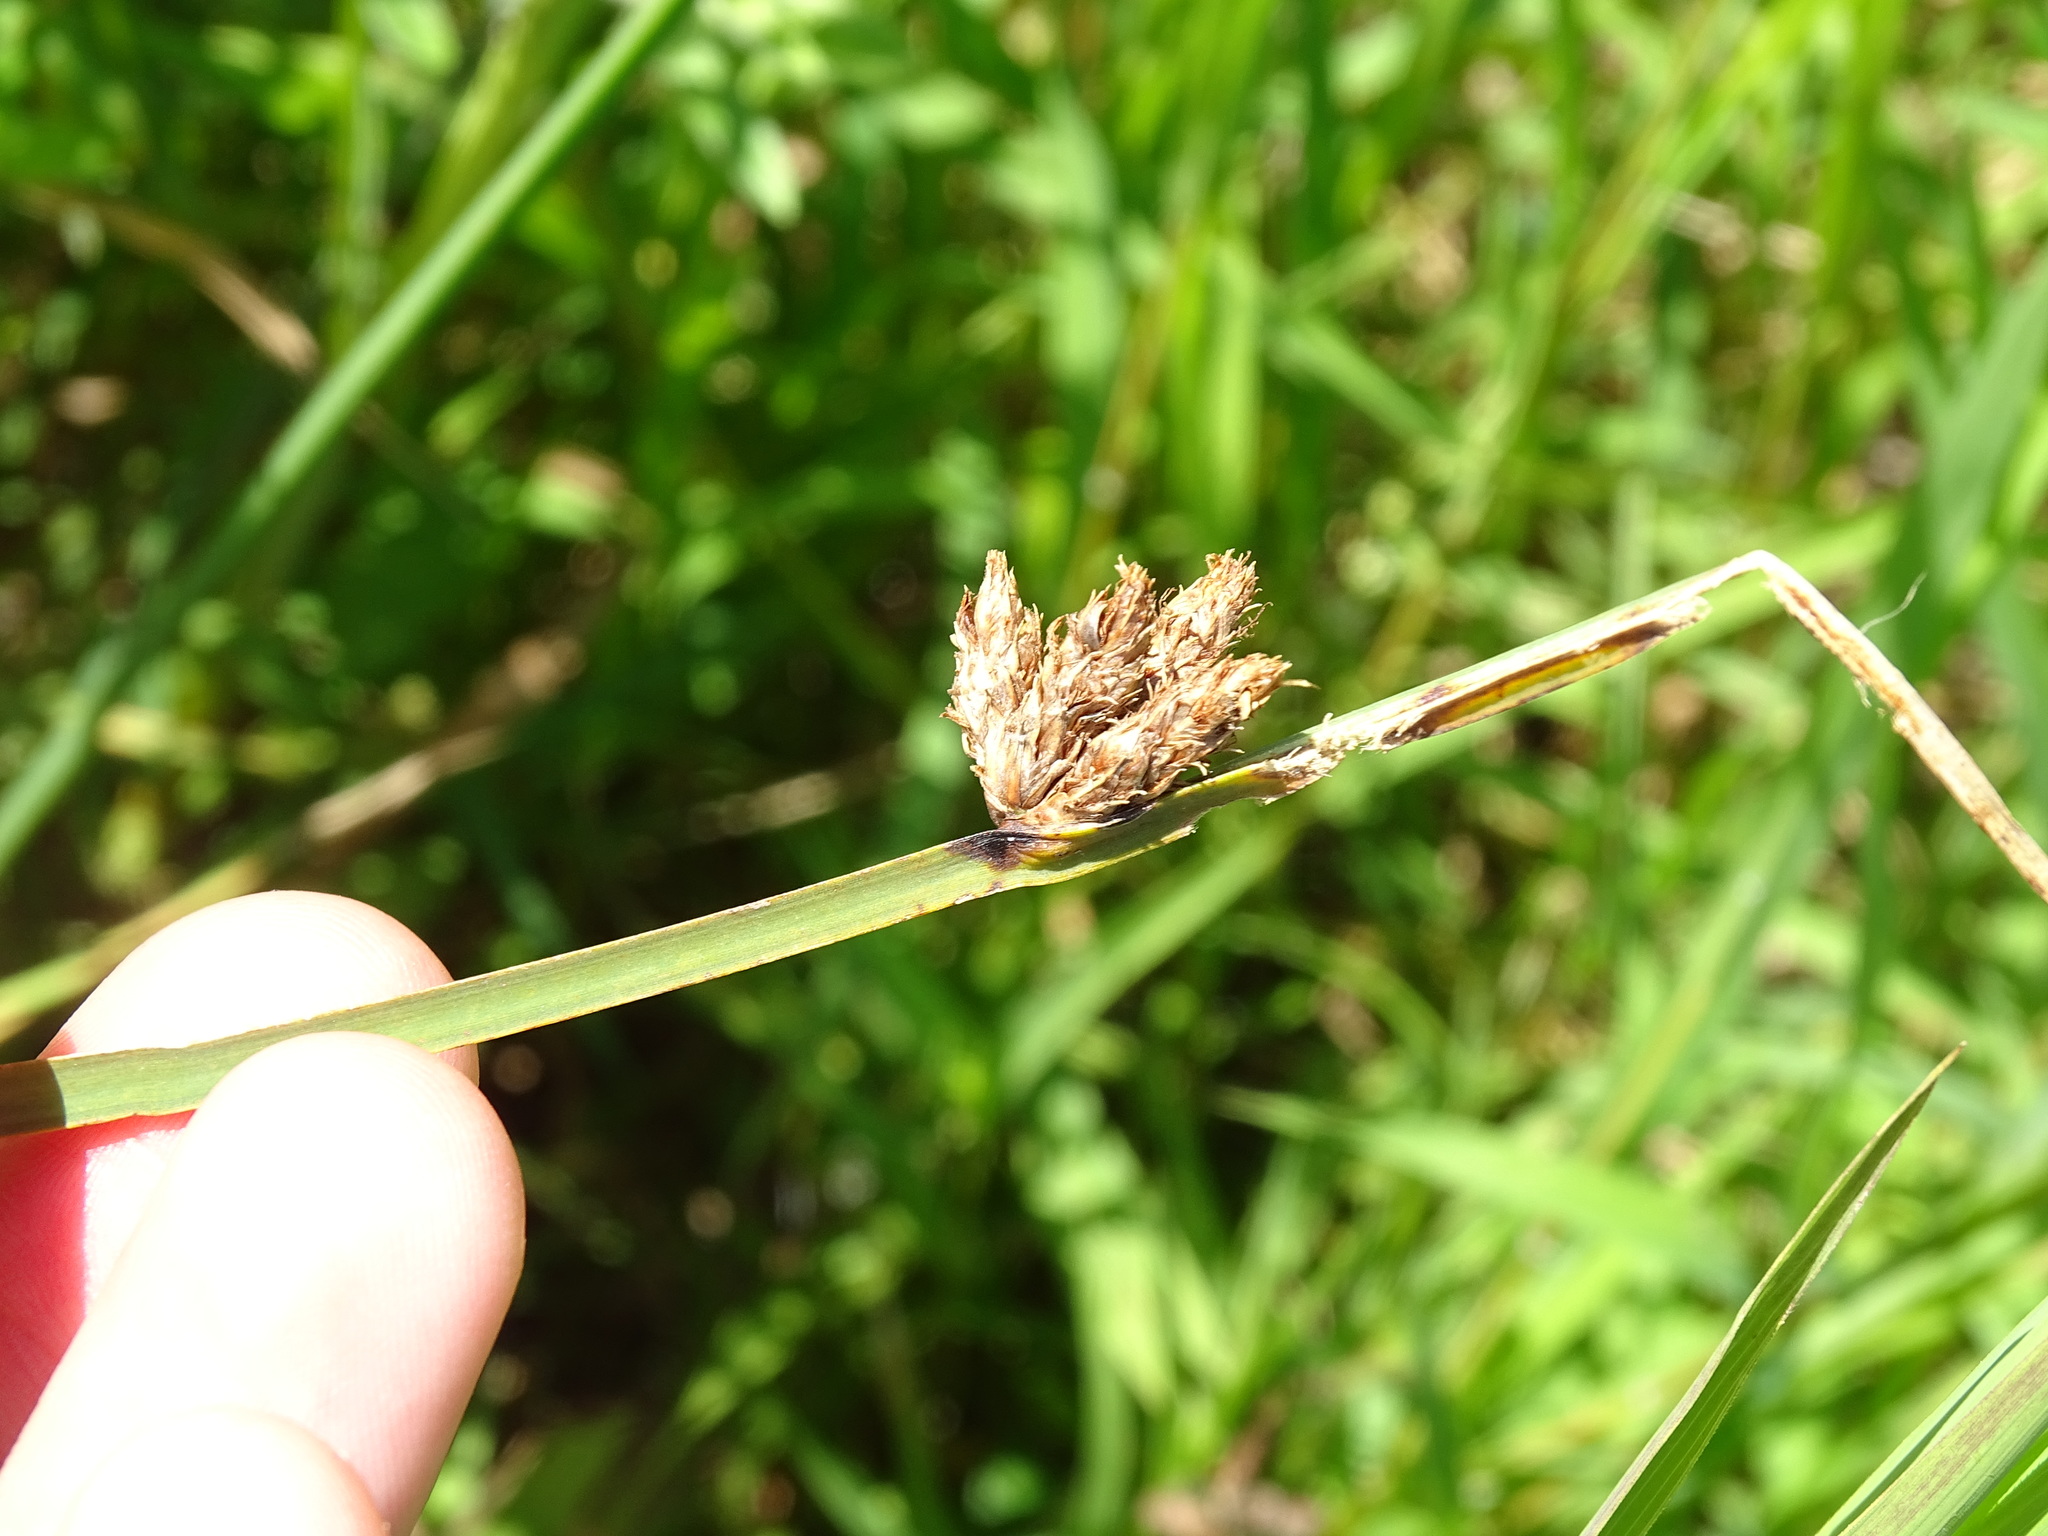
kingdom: Plantae
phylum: Tracheophyta
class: Liliopsida
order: Poales
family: Cyperaceae
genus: Schoenoplectus
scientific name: Schoenoplectus pungens
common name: Sharp club-rush
